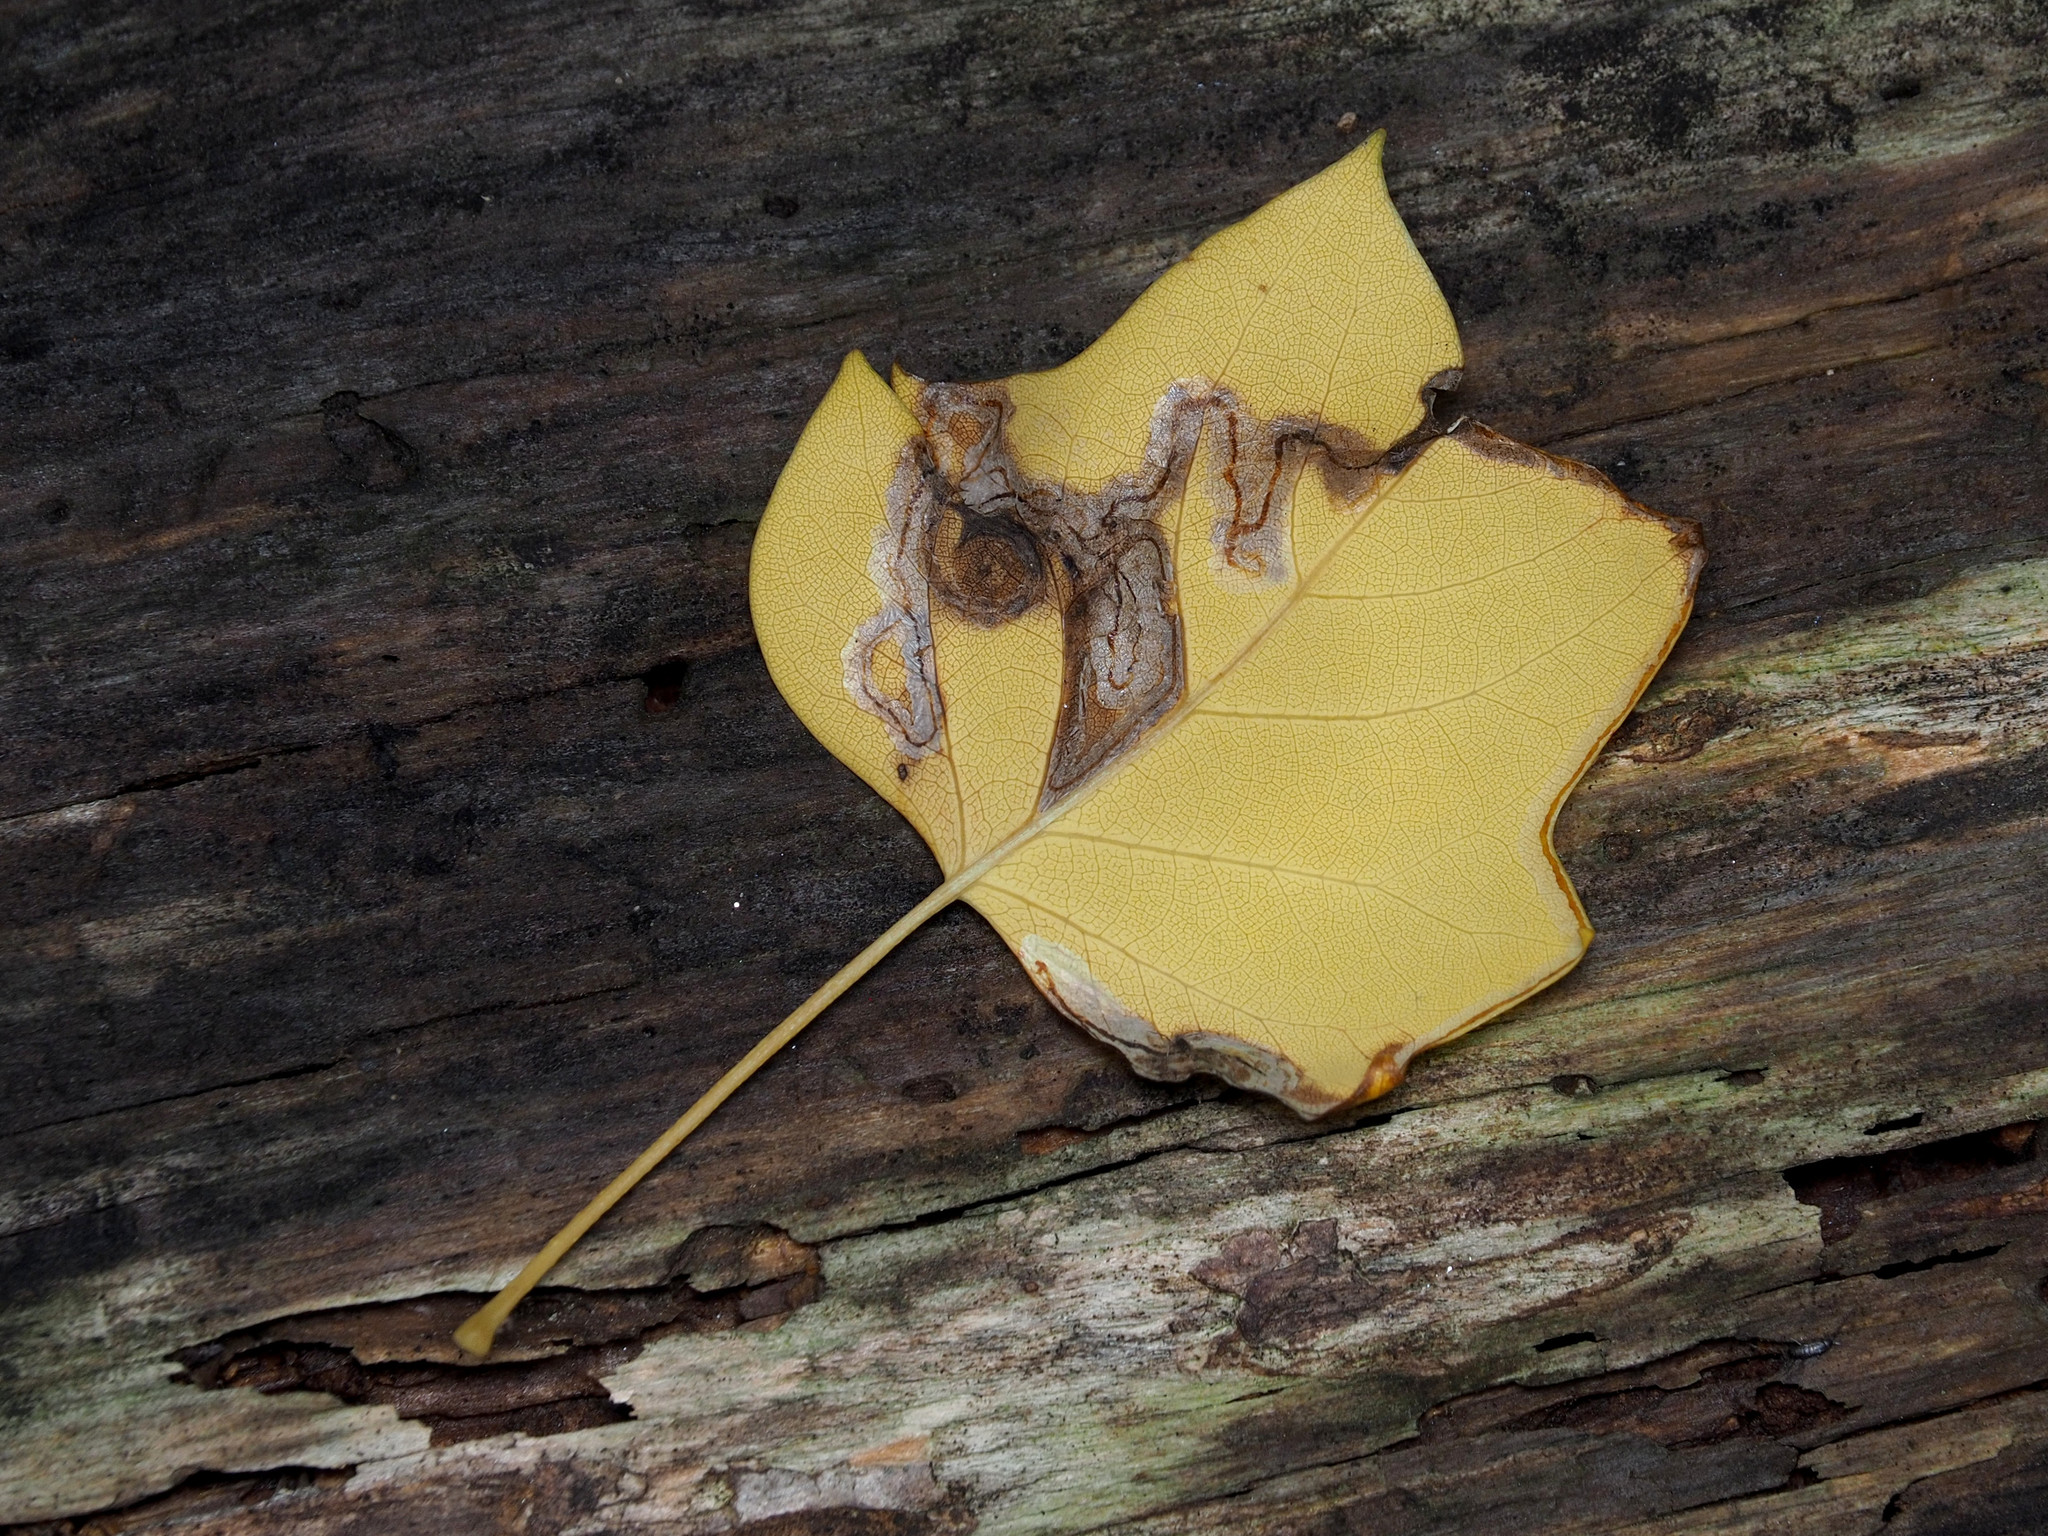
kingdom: Animalia
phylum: Arthropoda
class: Insecta
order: Lepidoptera
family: Gracillariidae
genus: Phyllocnistis
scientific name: Phyllocnistis liriodendronella
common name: Tulip tree leaf miner
